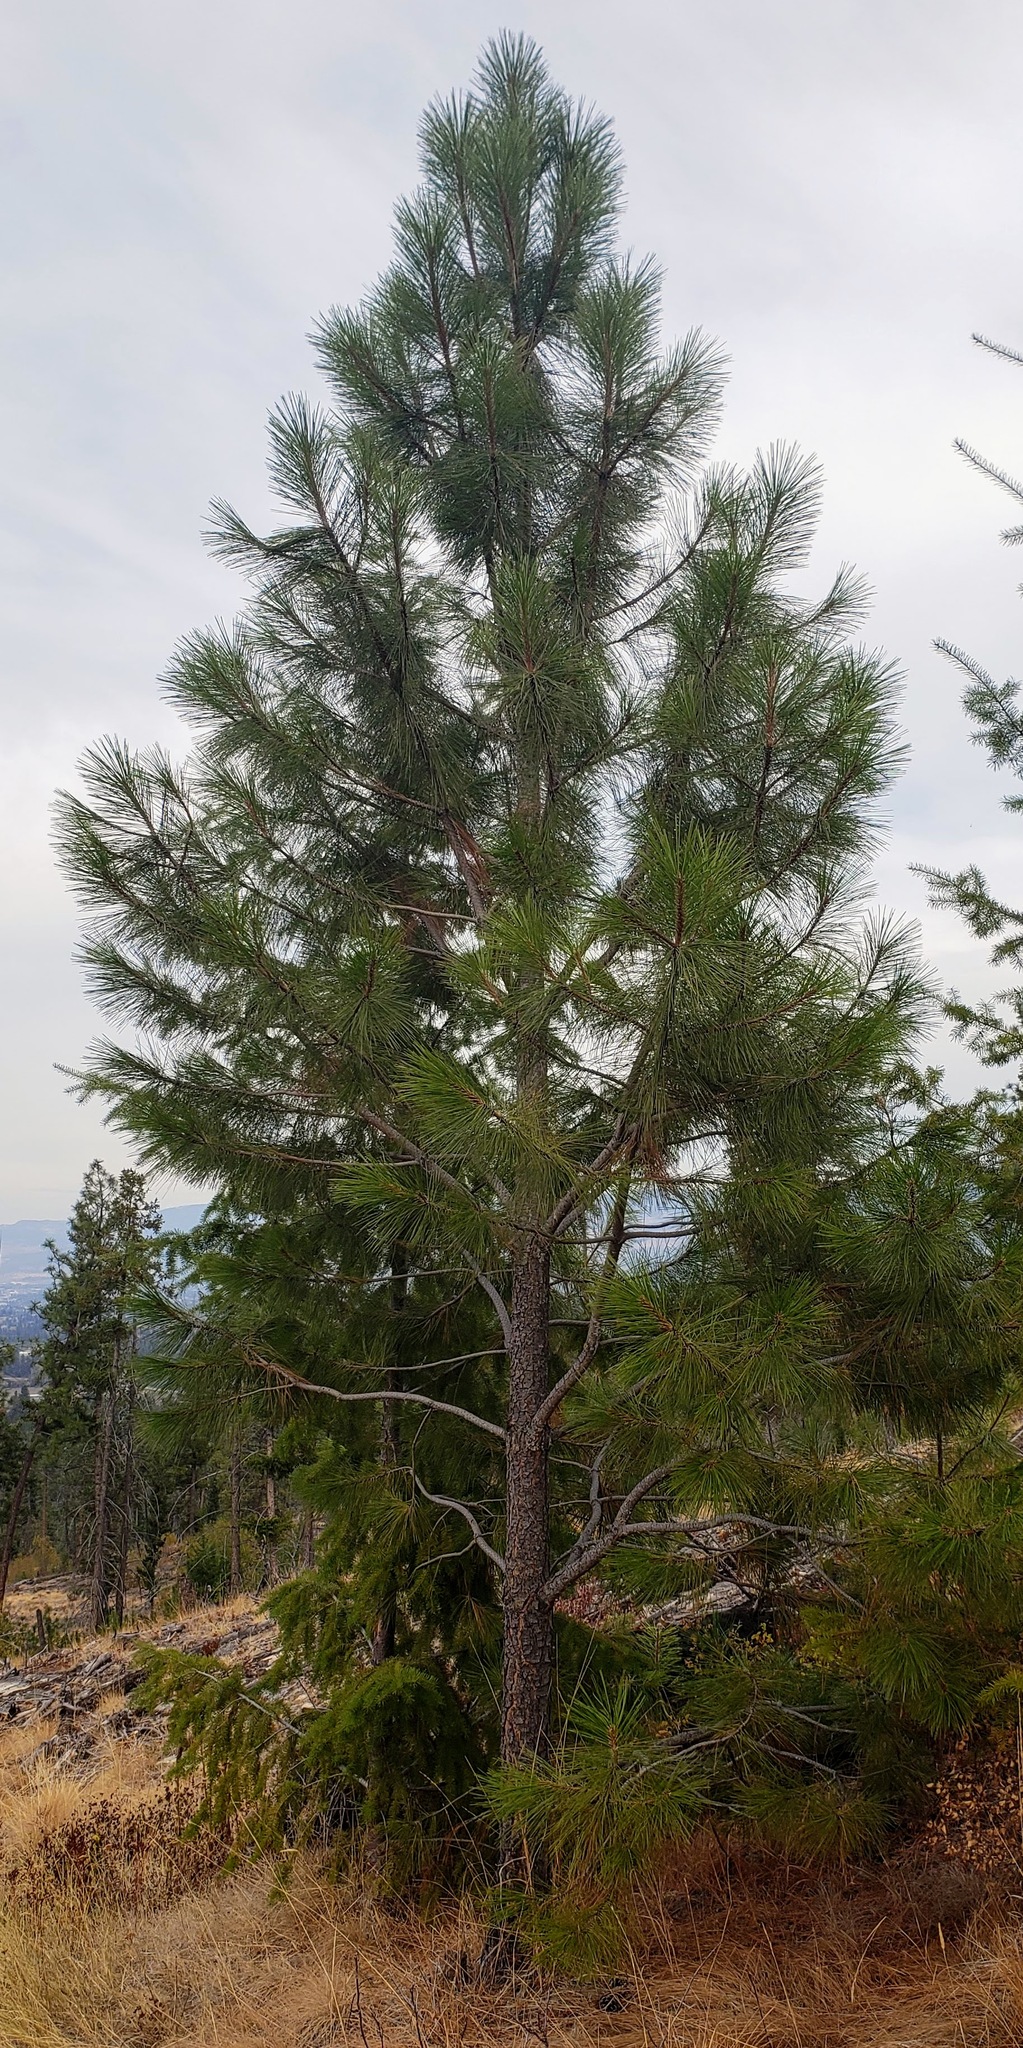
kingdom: Plantae
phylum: Tracheophyta
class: Pinopsida
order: Pinales
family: Pinaceae
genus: Pinus
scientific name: Pinus ponderosa
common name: Western yellow-pine
